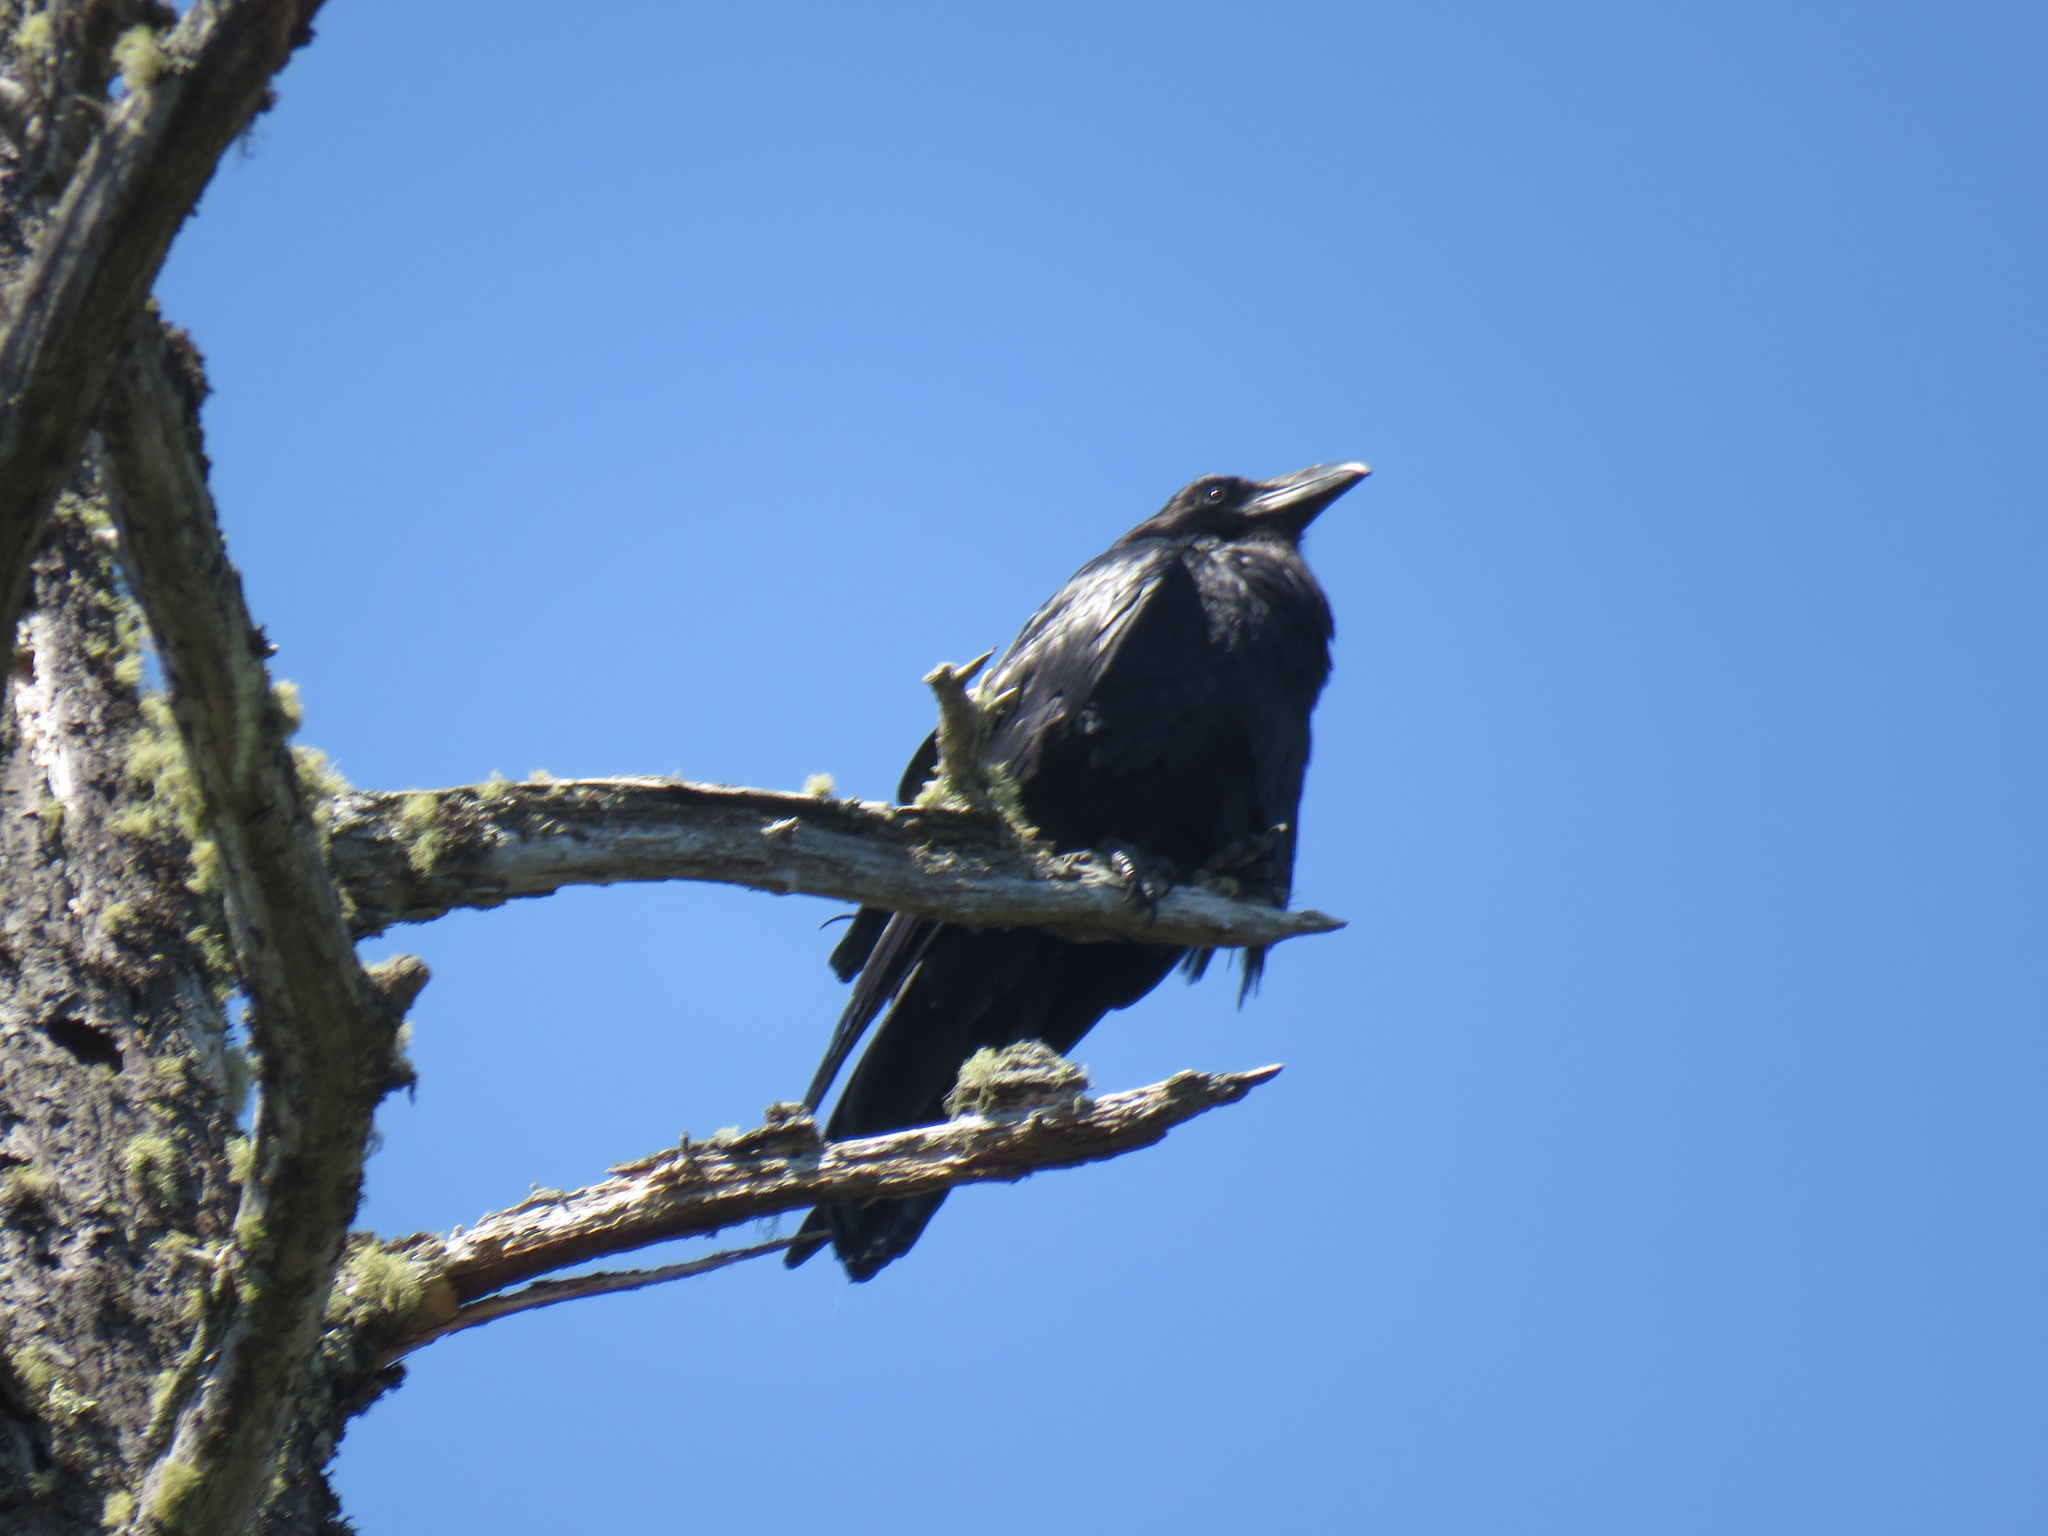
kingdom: Animalia
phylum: Chordata
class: Aves
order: Passeriformes
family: Corvidae
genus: Corvus
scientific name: Corvus brachyrhynchos
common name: American crow
